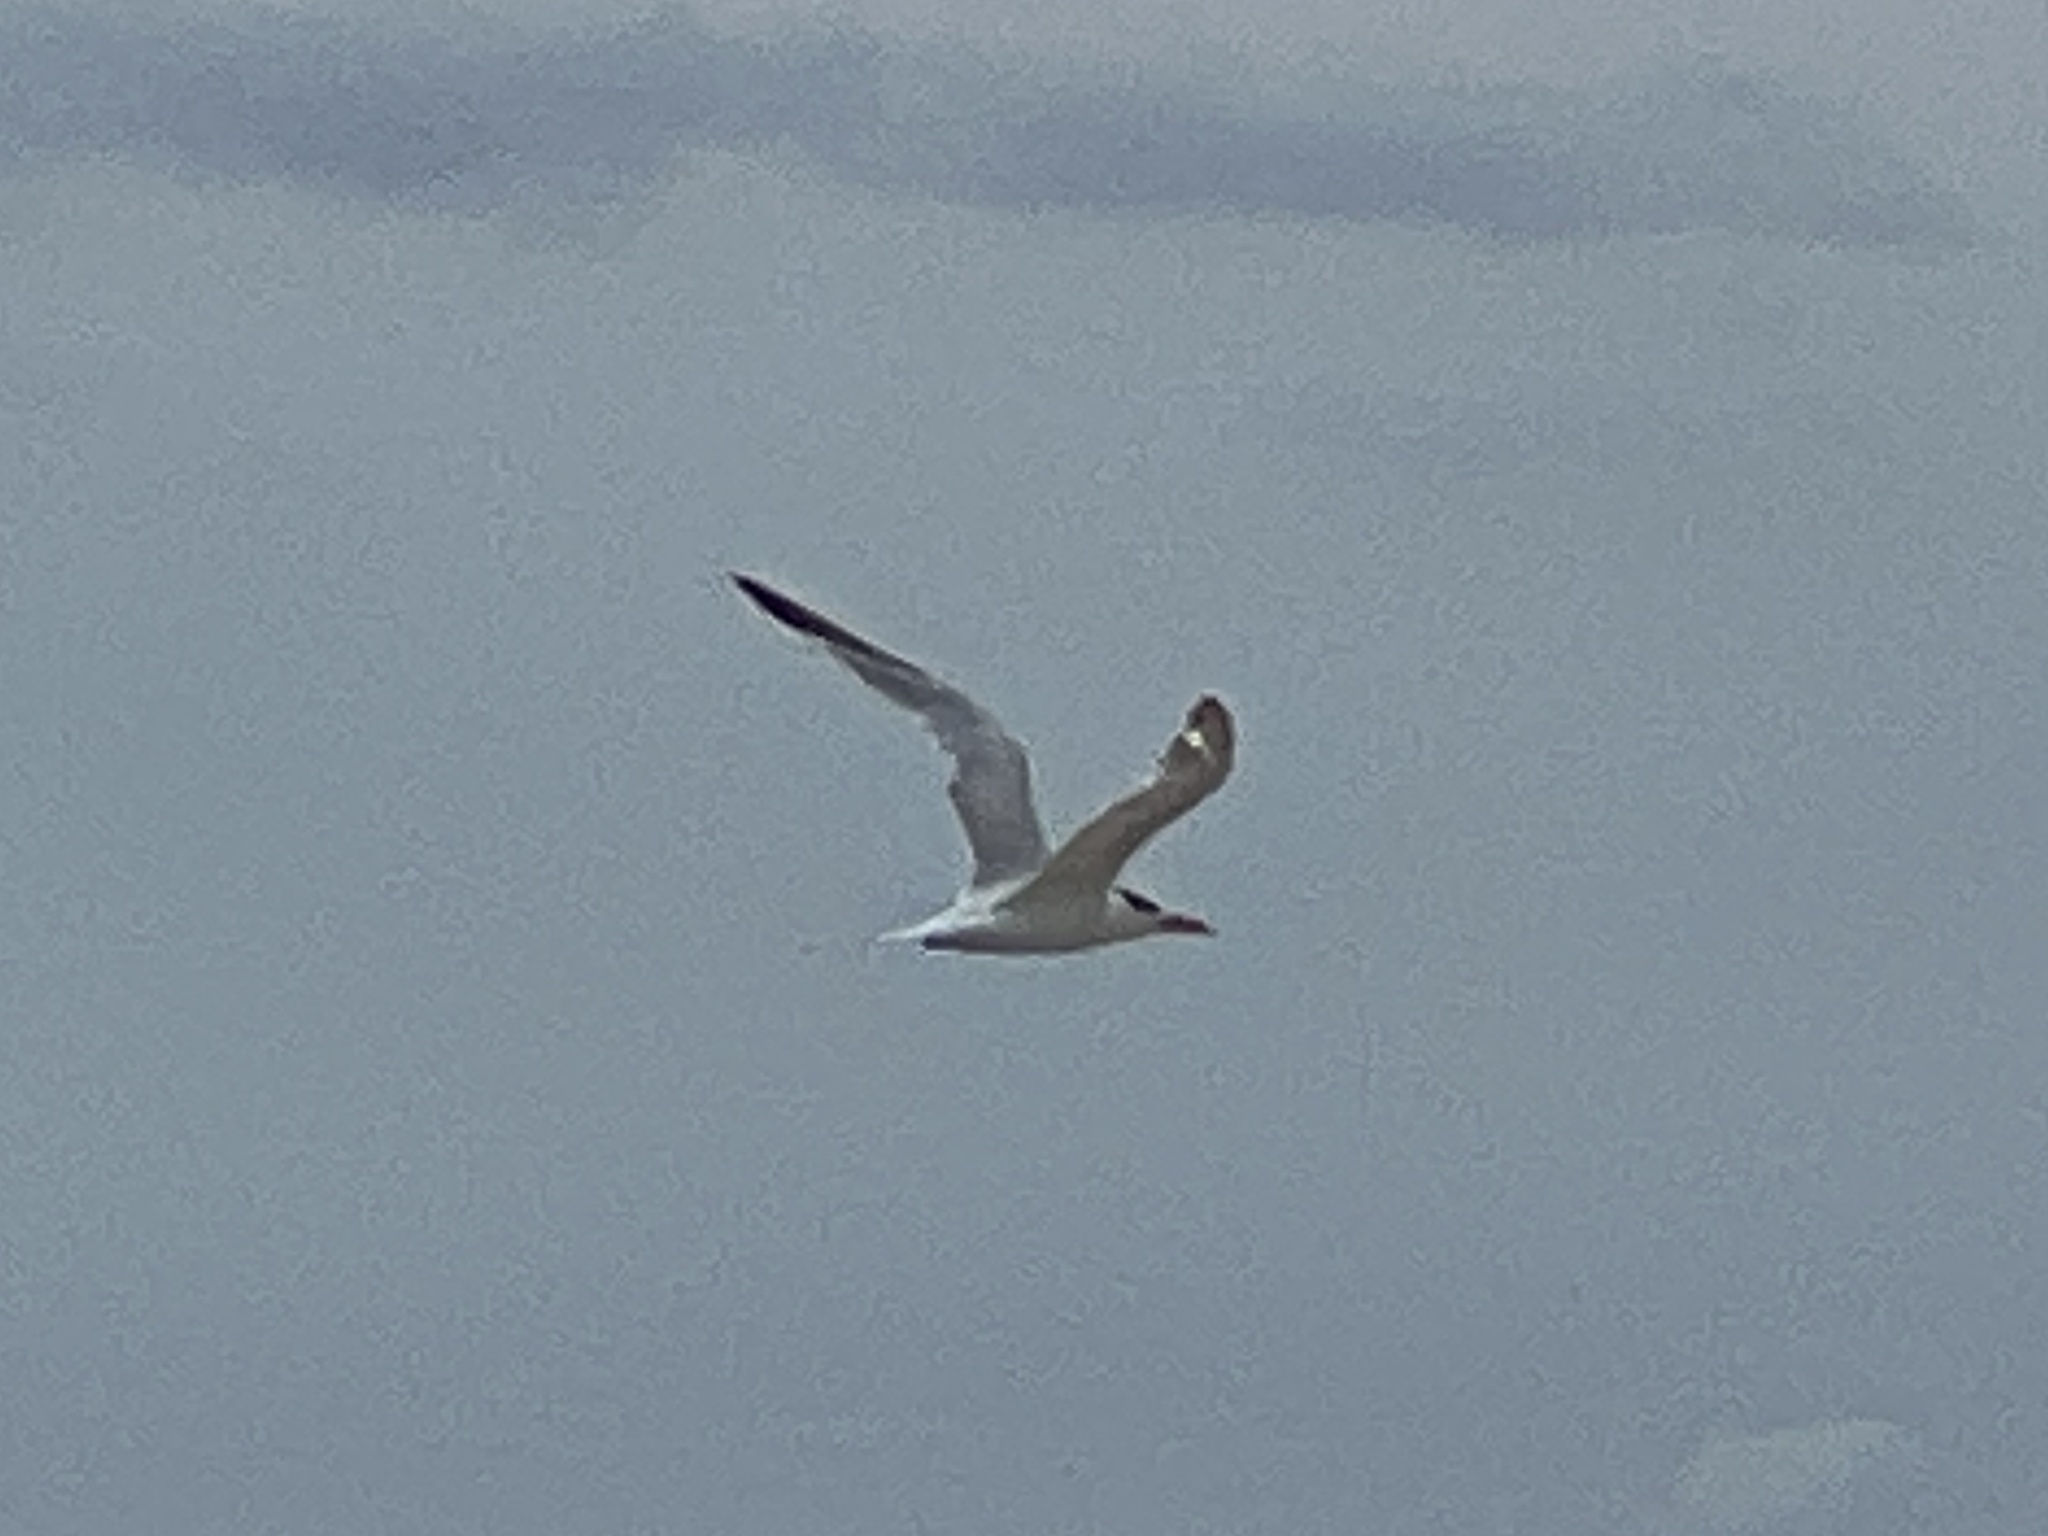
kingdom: Animalia
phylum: Chordata
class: Aves
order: Charadriiformes
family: Laridae
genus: Hydroprogne
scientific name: Hydroprogne caspia
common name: Caspian tern
